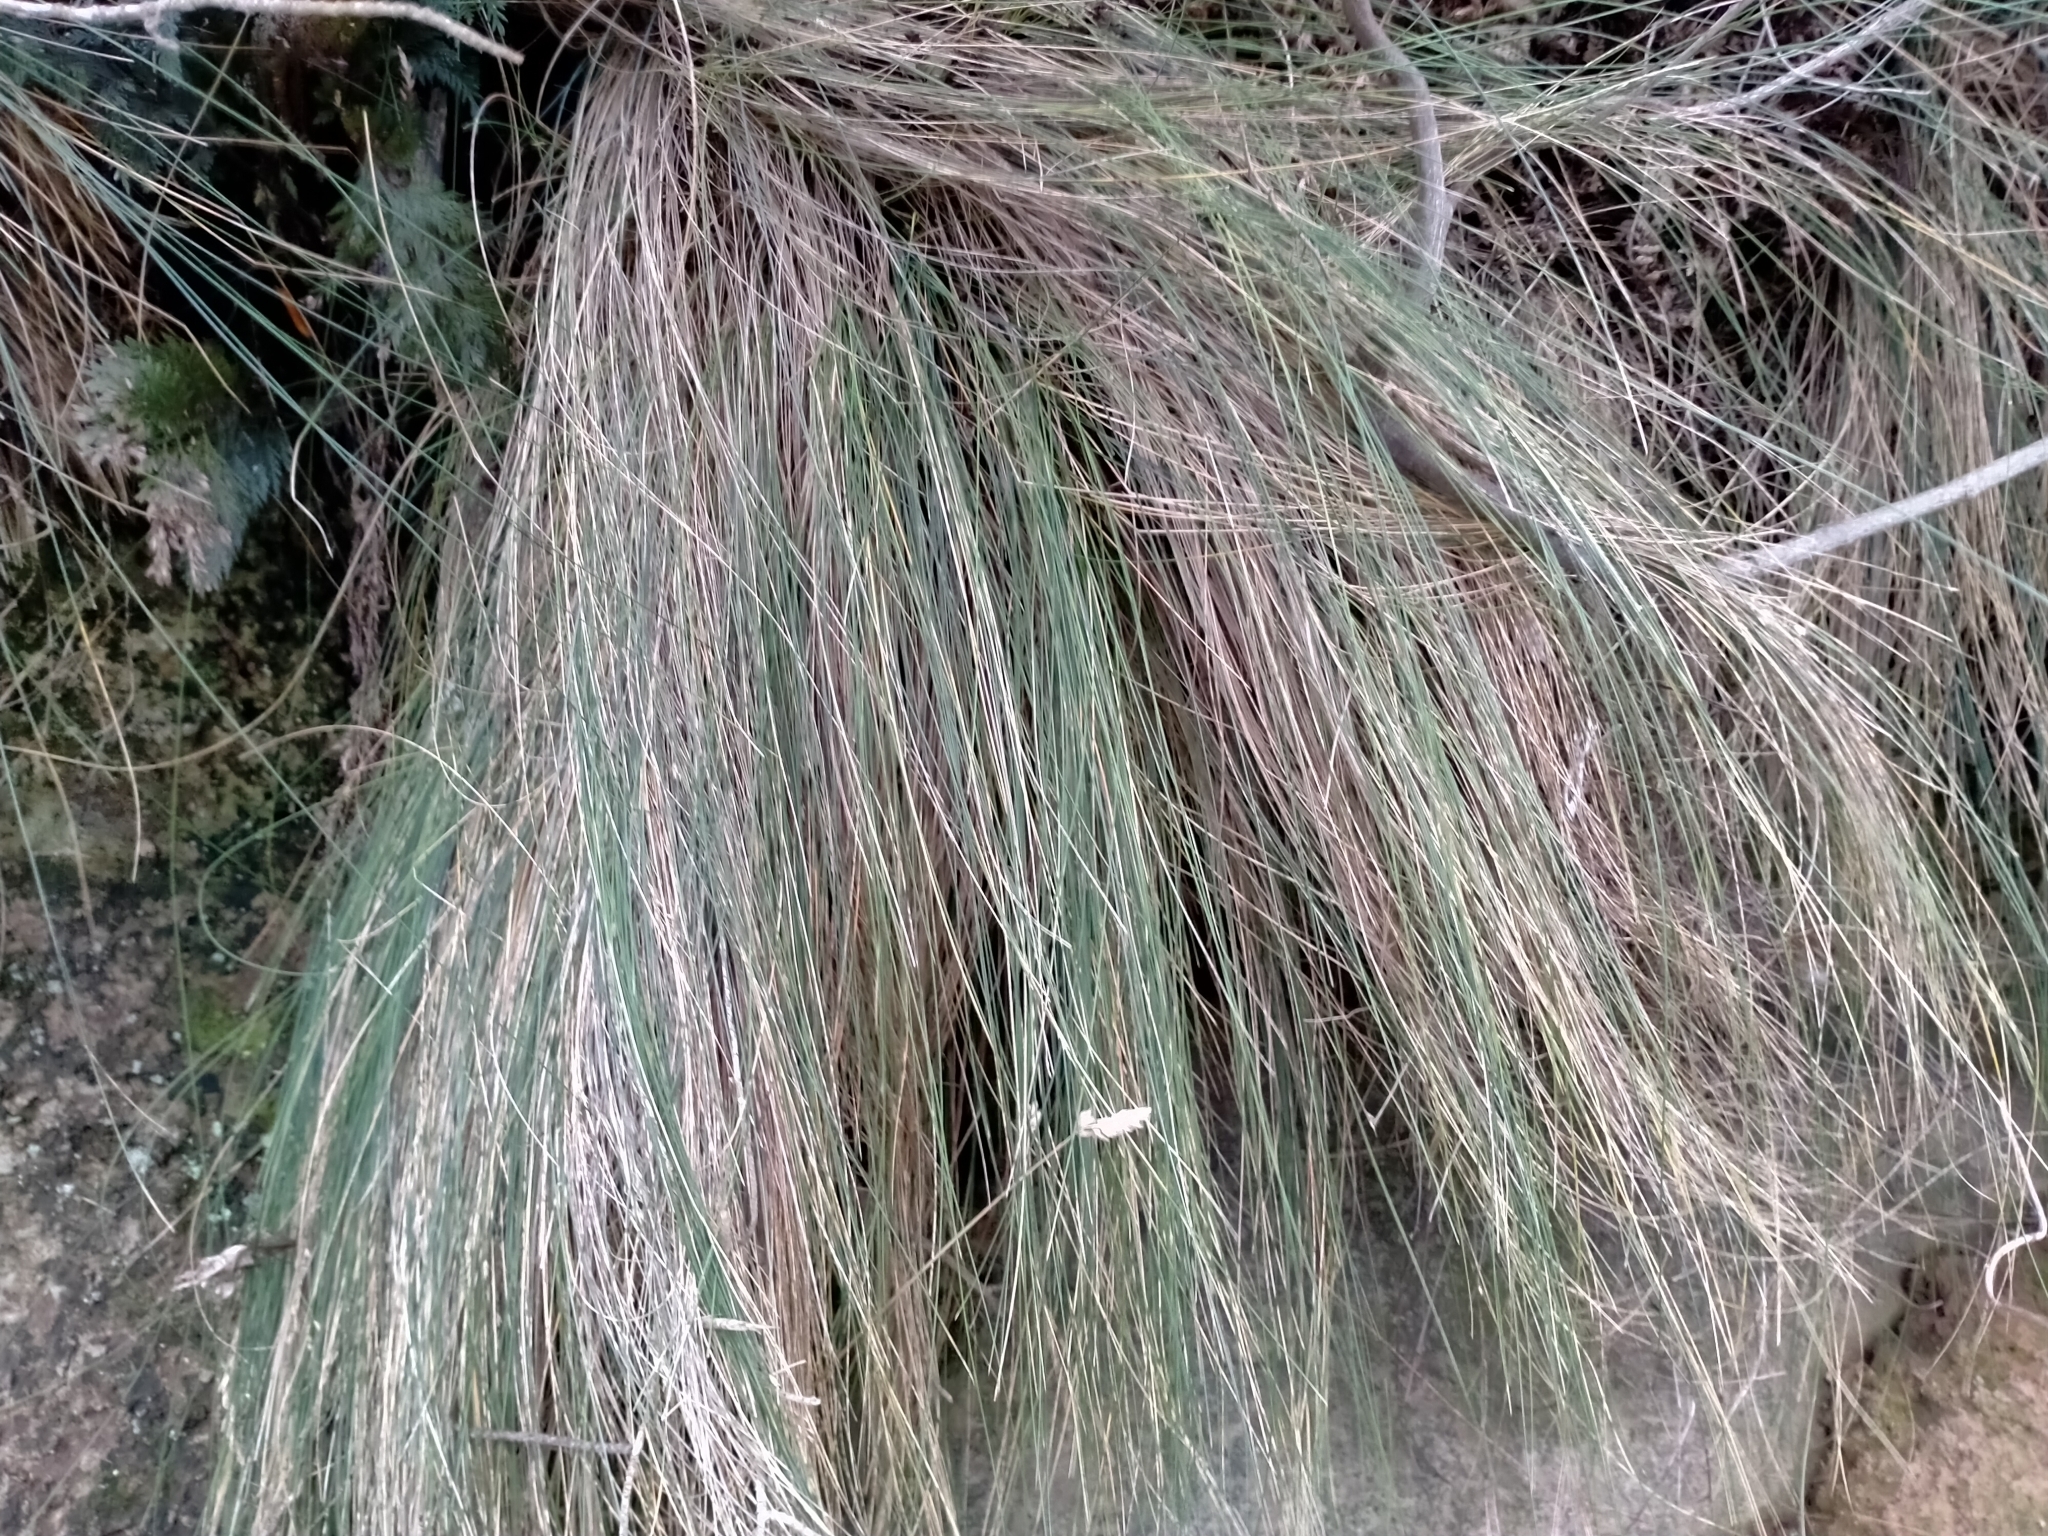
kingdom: Plantae
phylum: Tracheophyta
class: Liliopsida
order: Poales
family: Poaceae
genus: Poa
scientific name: Poa astonii
